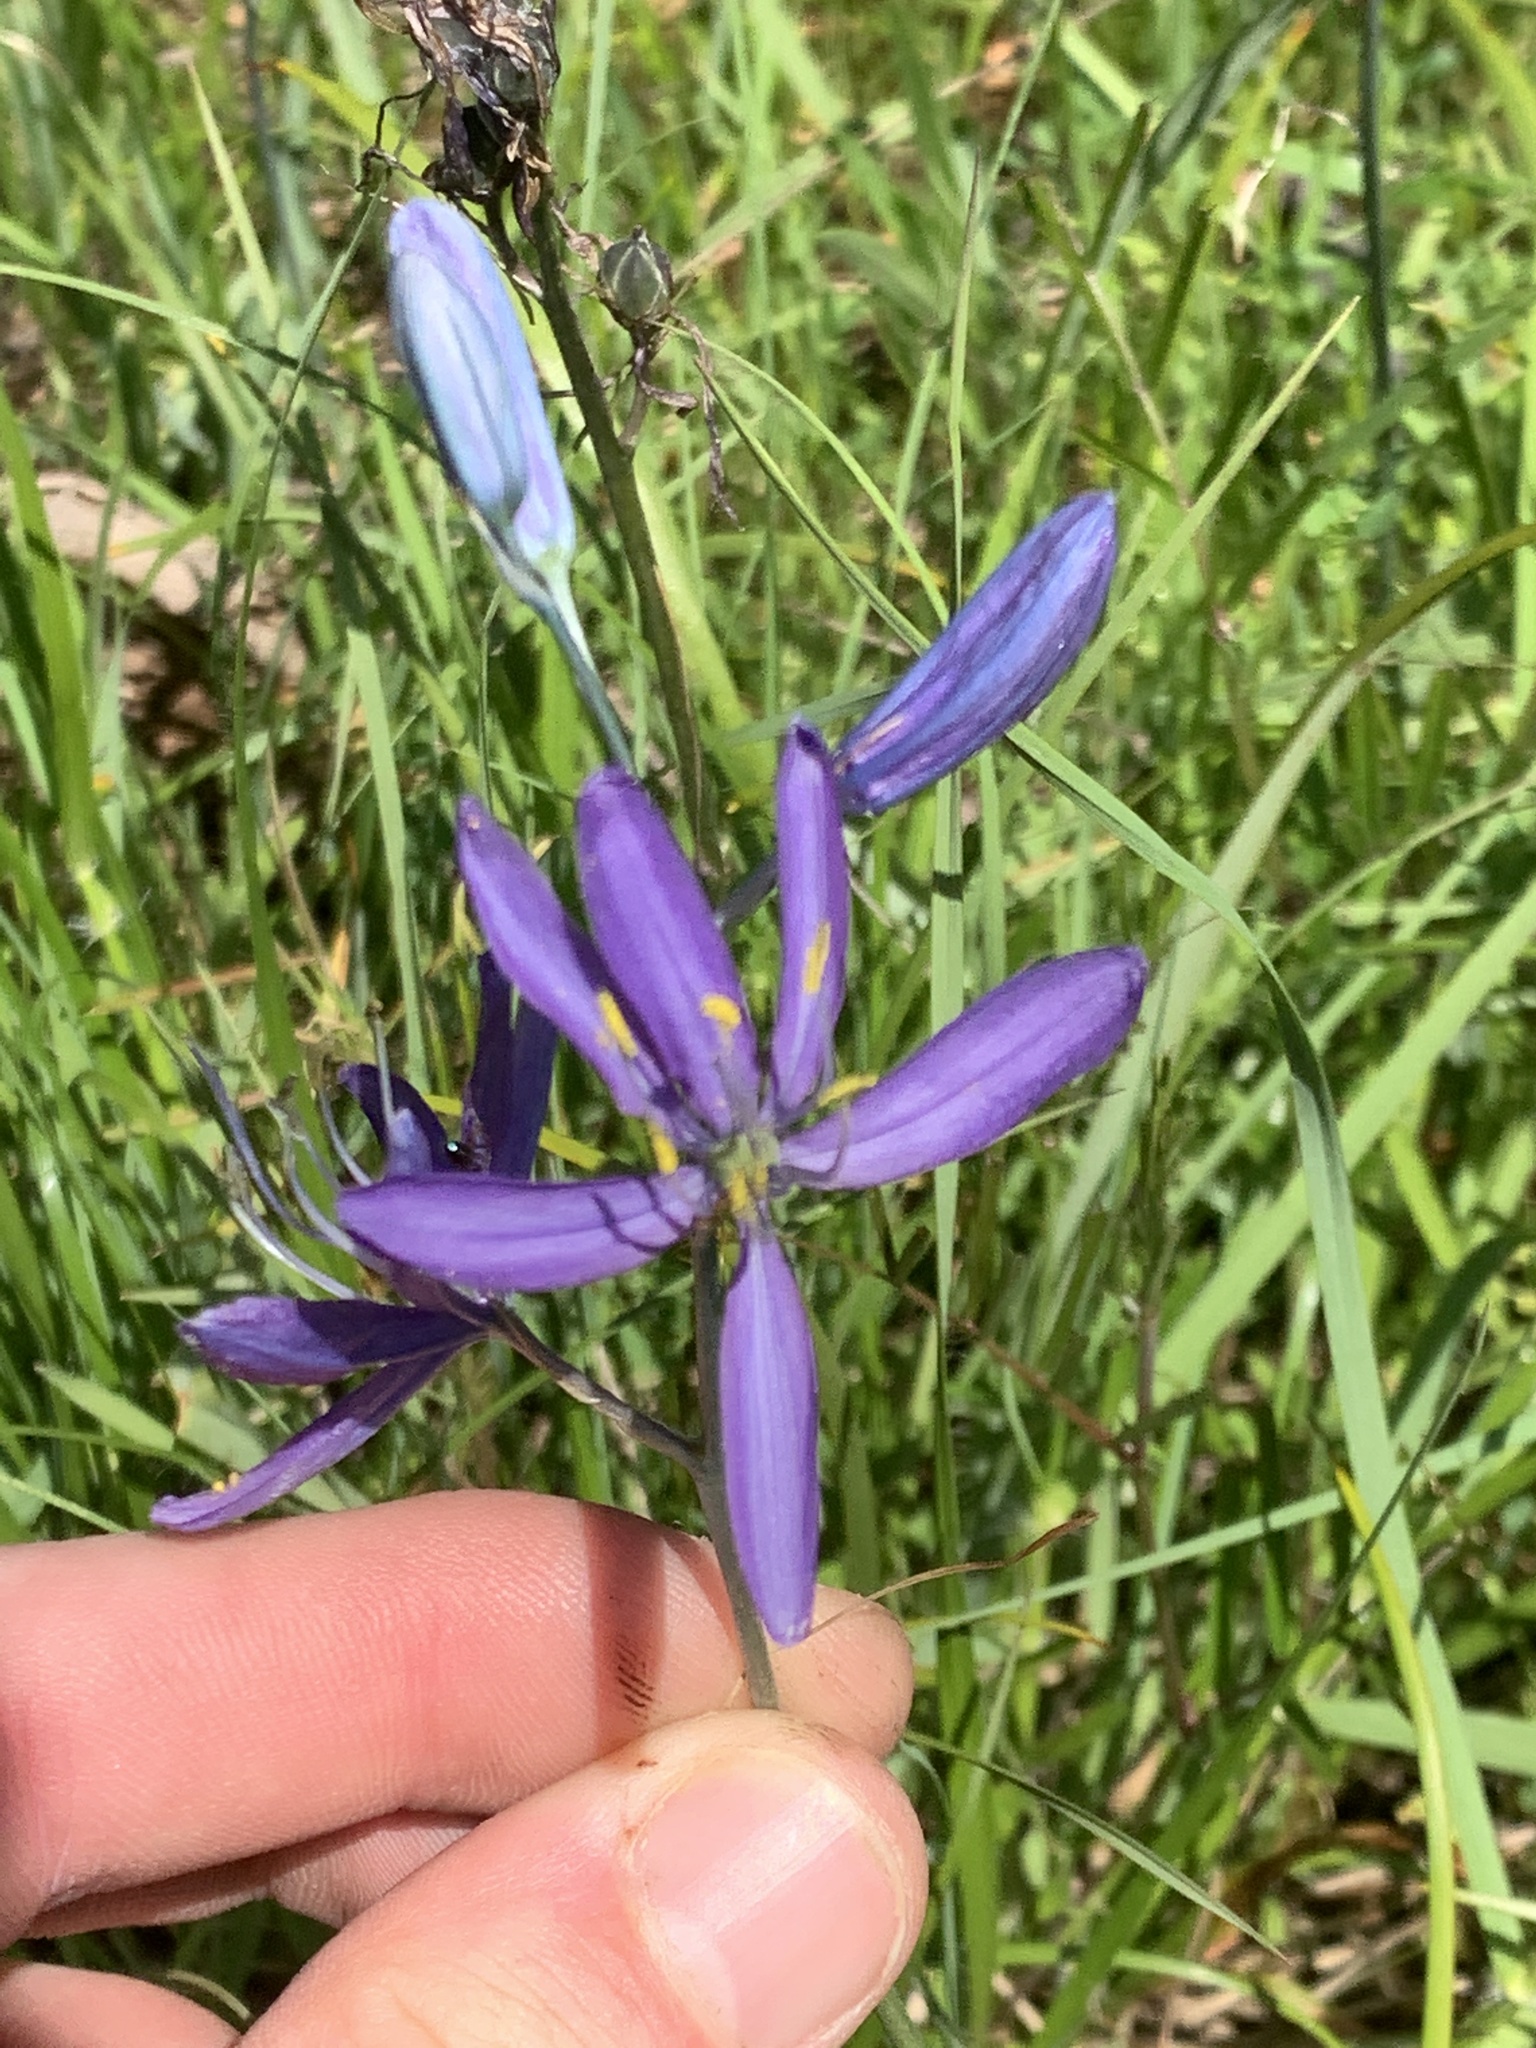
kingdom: Plantae
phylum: Tracheophyta
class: Liliopsida
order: Asparagales
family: Asparagaceae
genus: Camassia
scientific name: Camassia quamash
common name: Common camas
